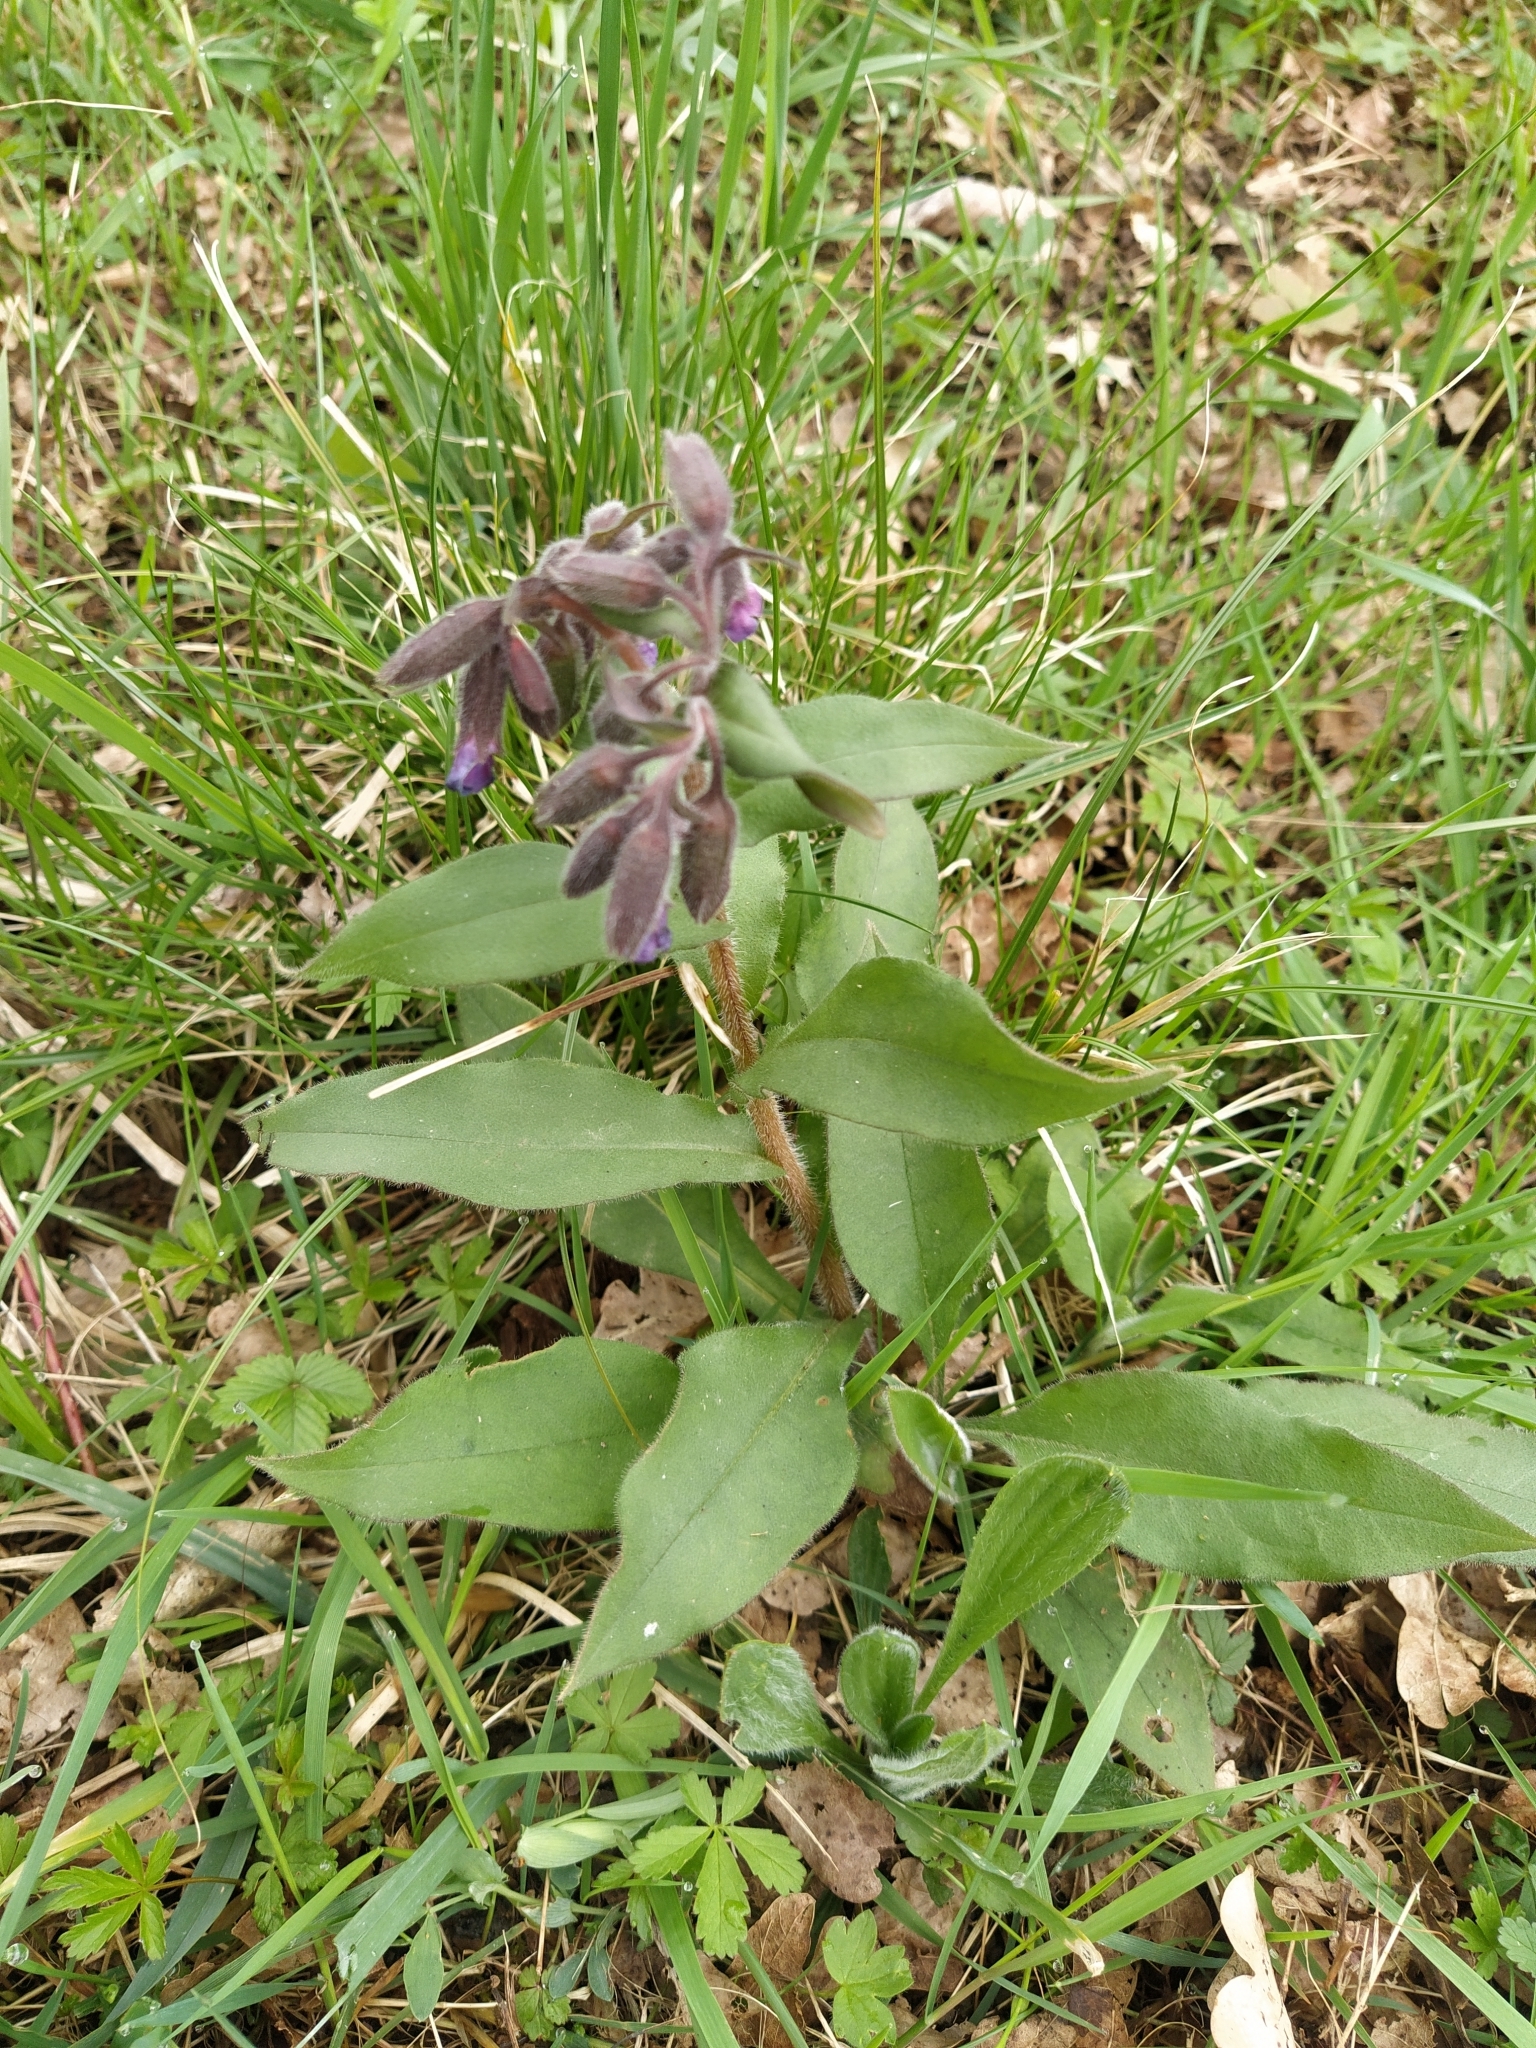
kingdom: Plantae
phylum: Tracheophyta
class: Magnoliopsida
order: Boraginales
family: Boraginaceae
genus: Pulmonaria
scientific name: Pulmonaria obscura
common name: Suffolk lungwort
